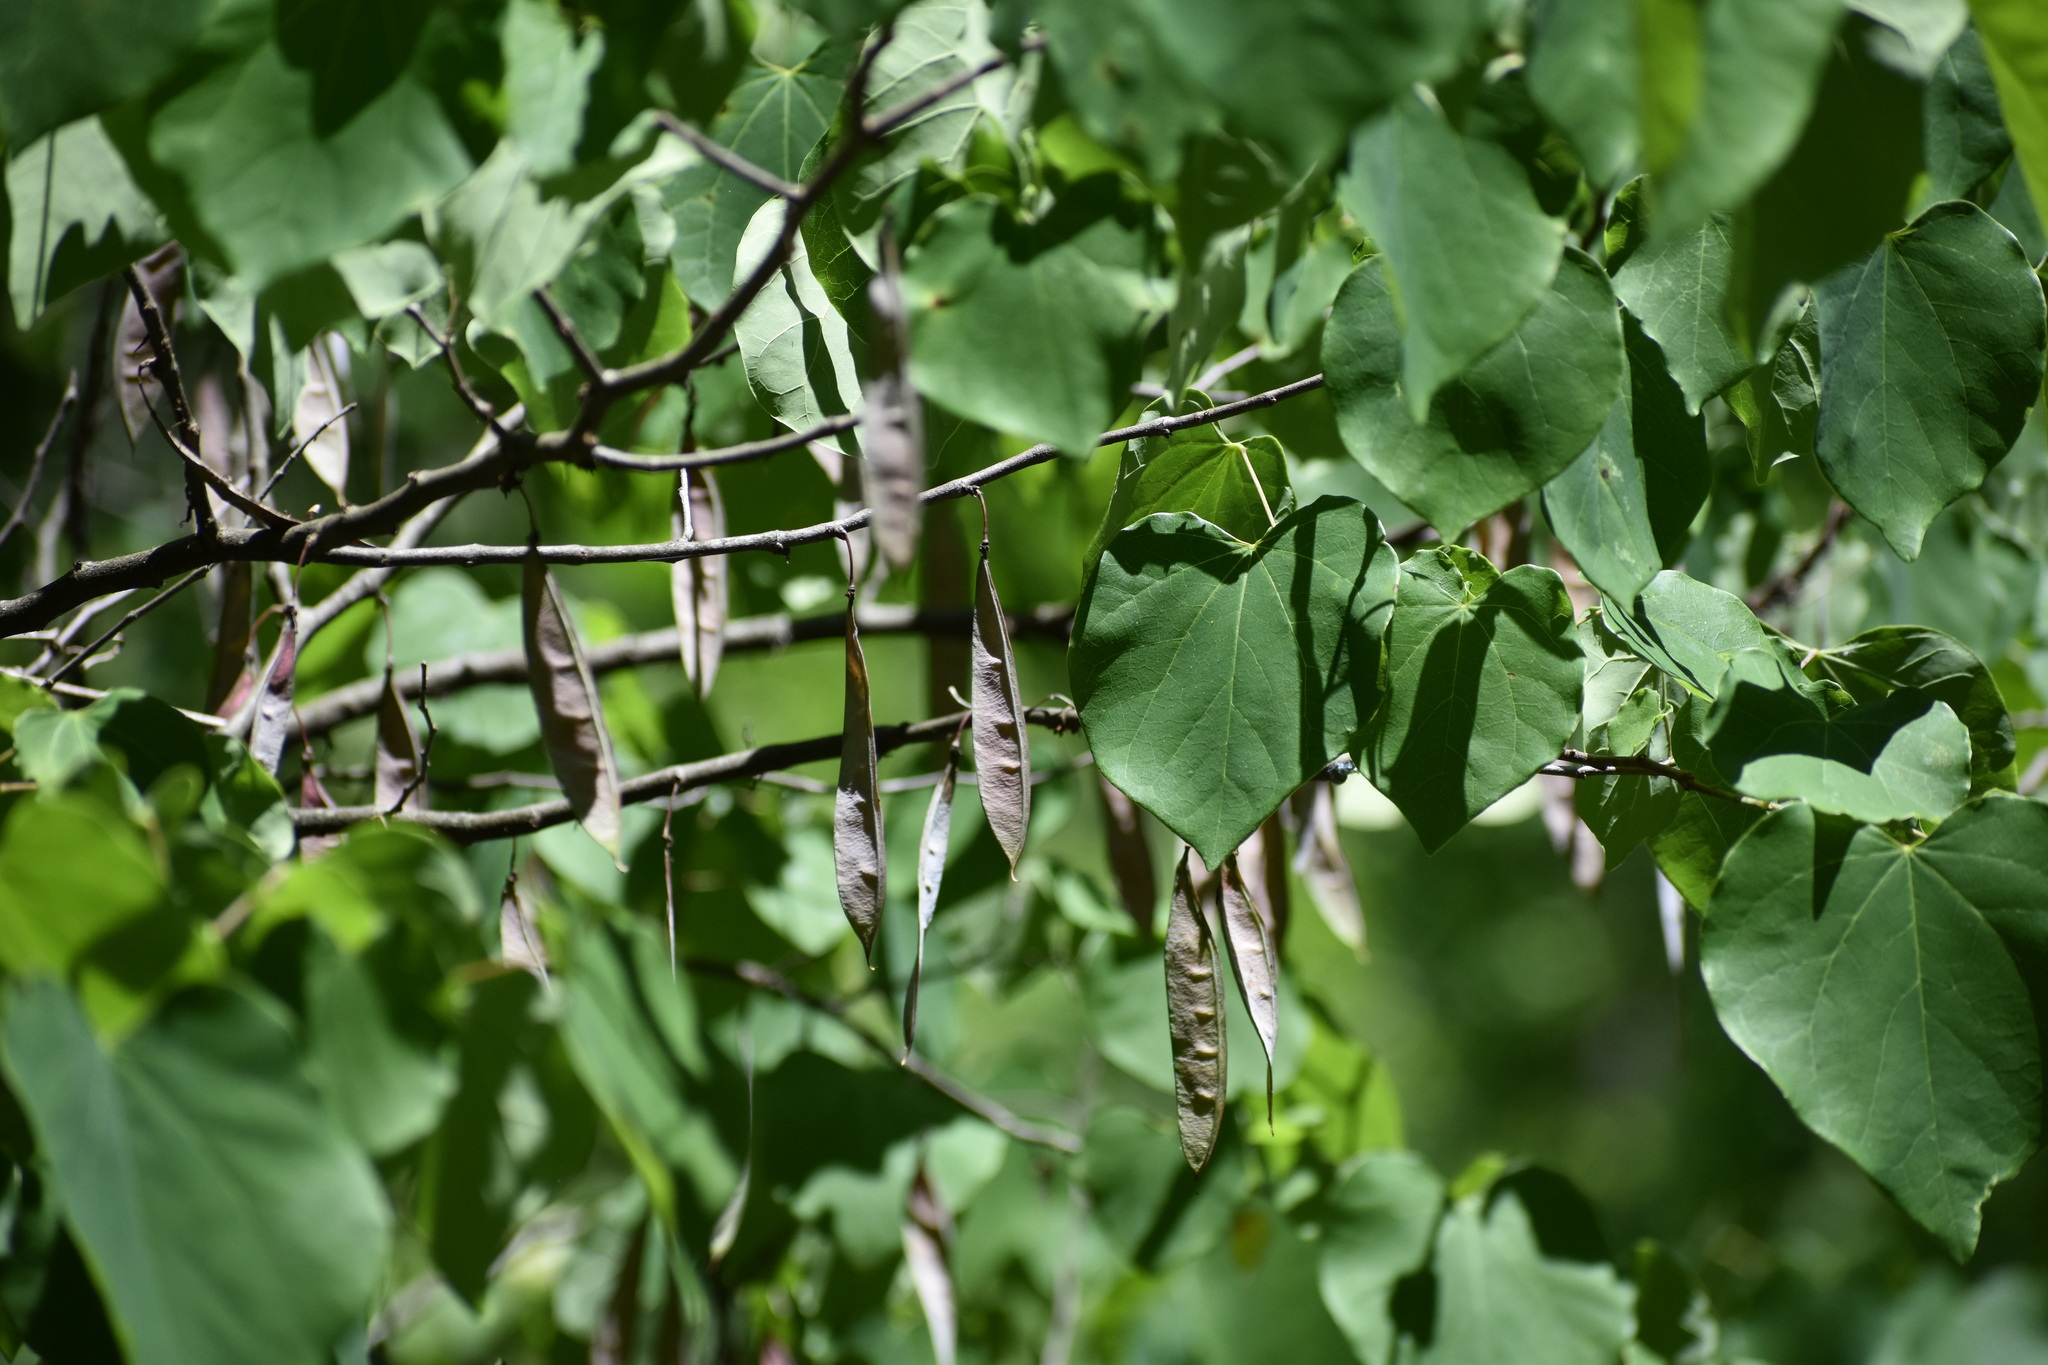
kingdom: Plantae
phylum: Tracheophyta
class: Magnoliopsida
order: Fabales
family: Fabaceae
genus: Cercis
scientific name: Cercis canadensis
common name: Eastern redbud
